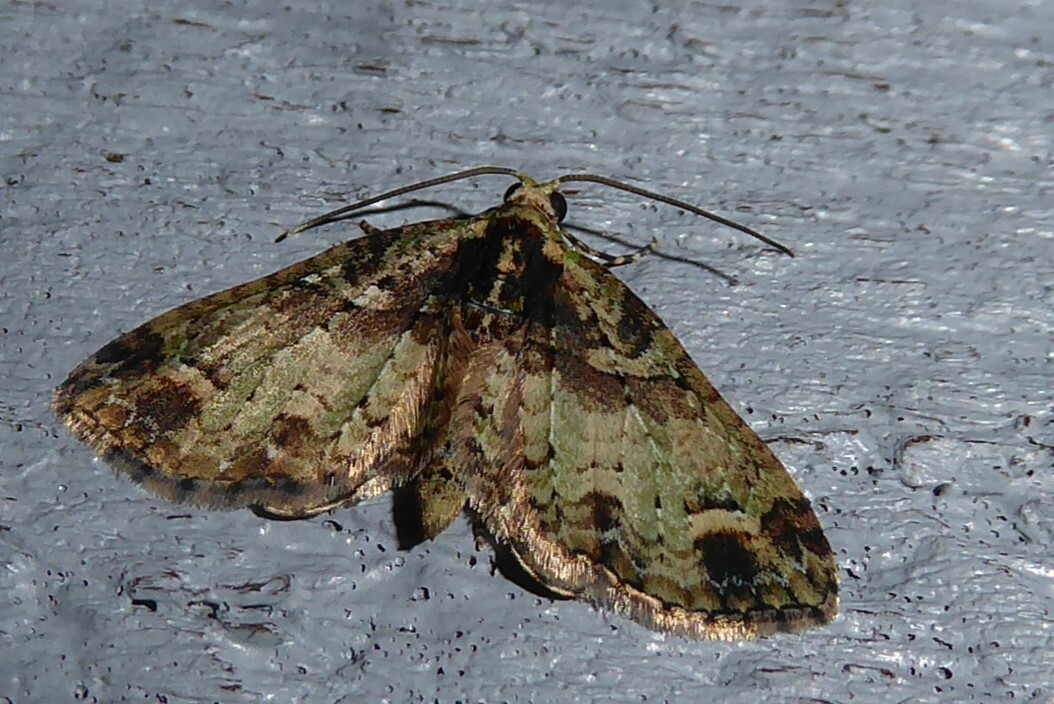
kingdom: Animalia
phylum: Arthropoda
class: Insecta
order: Lepidoptera
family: Geometridae
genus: Idaea
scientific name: Idaea mutanda
